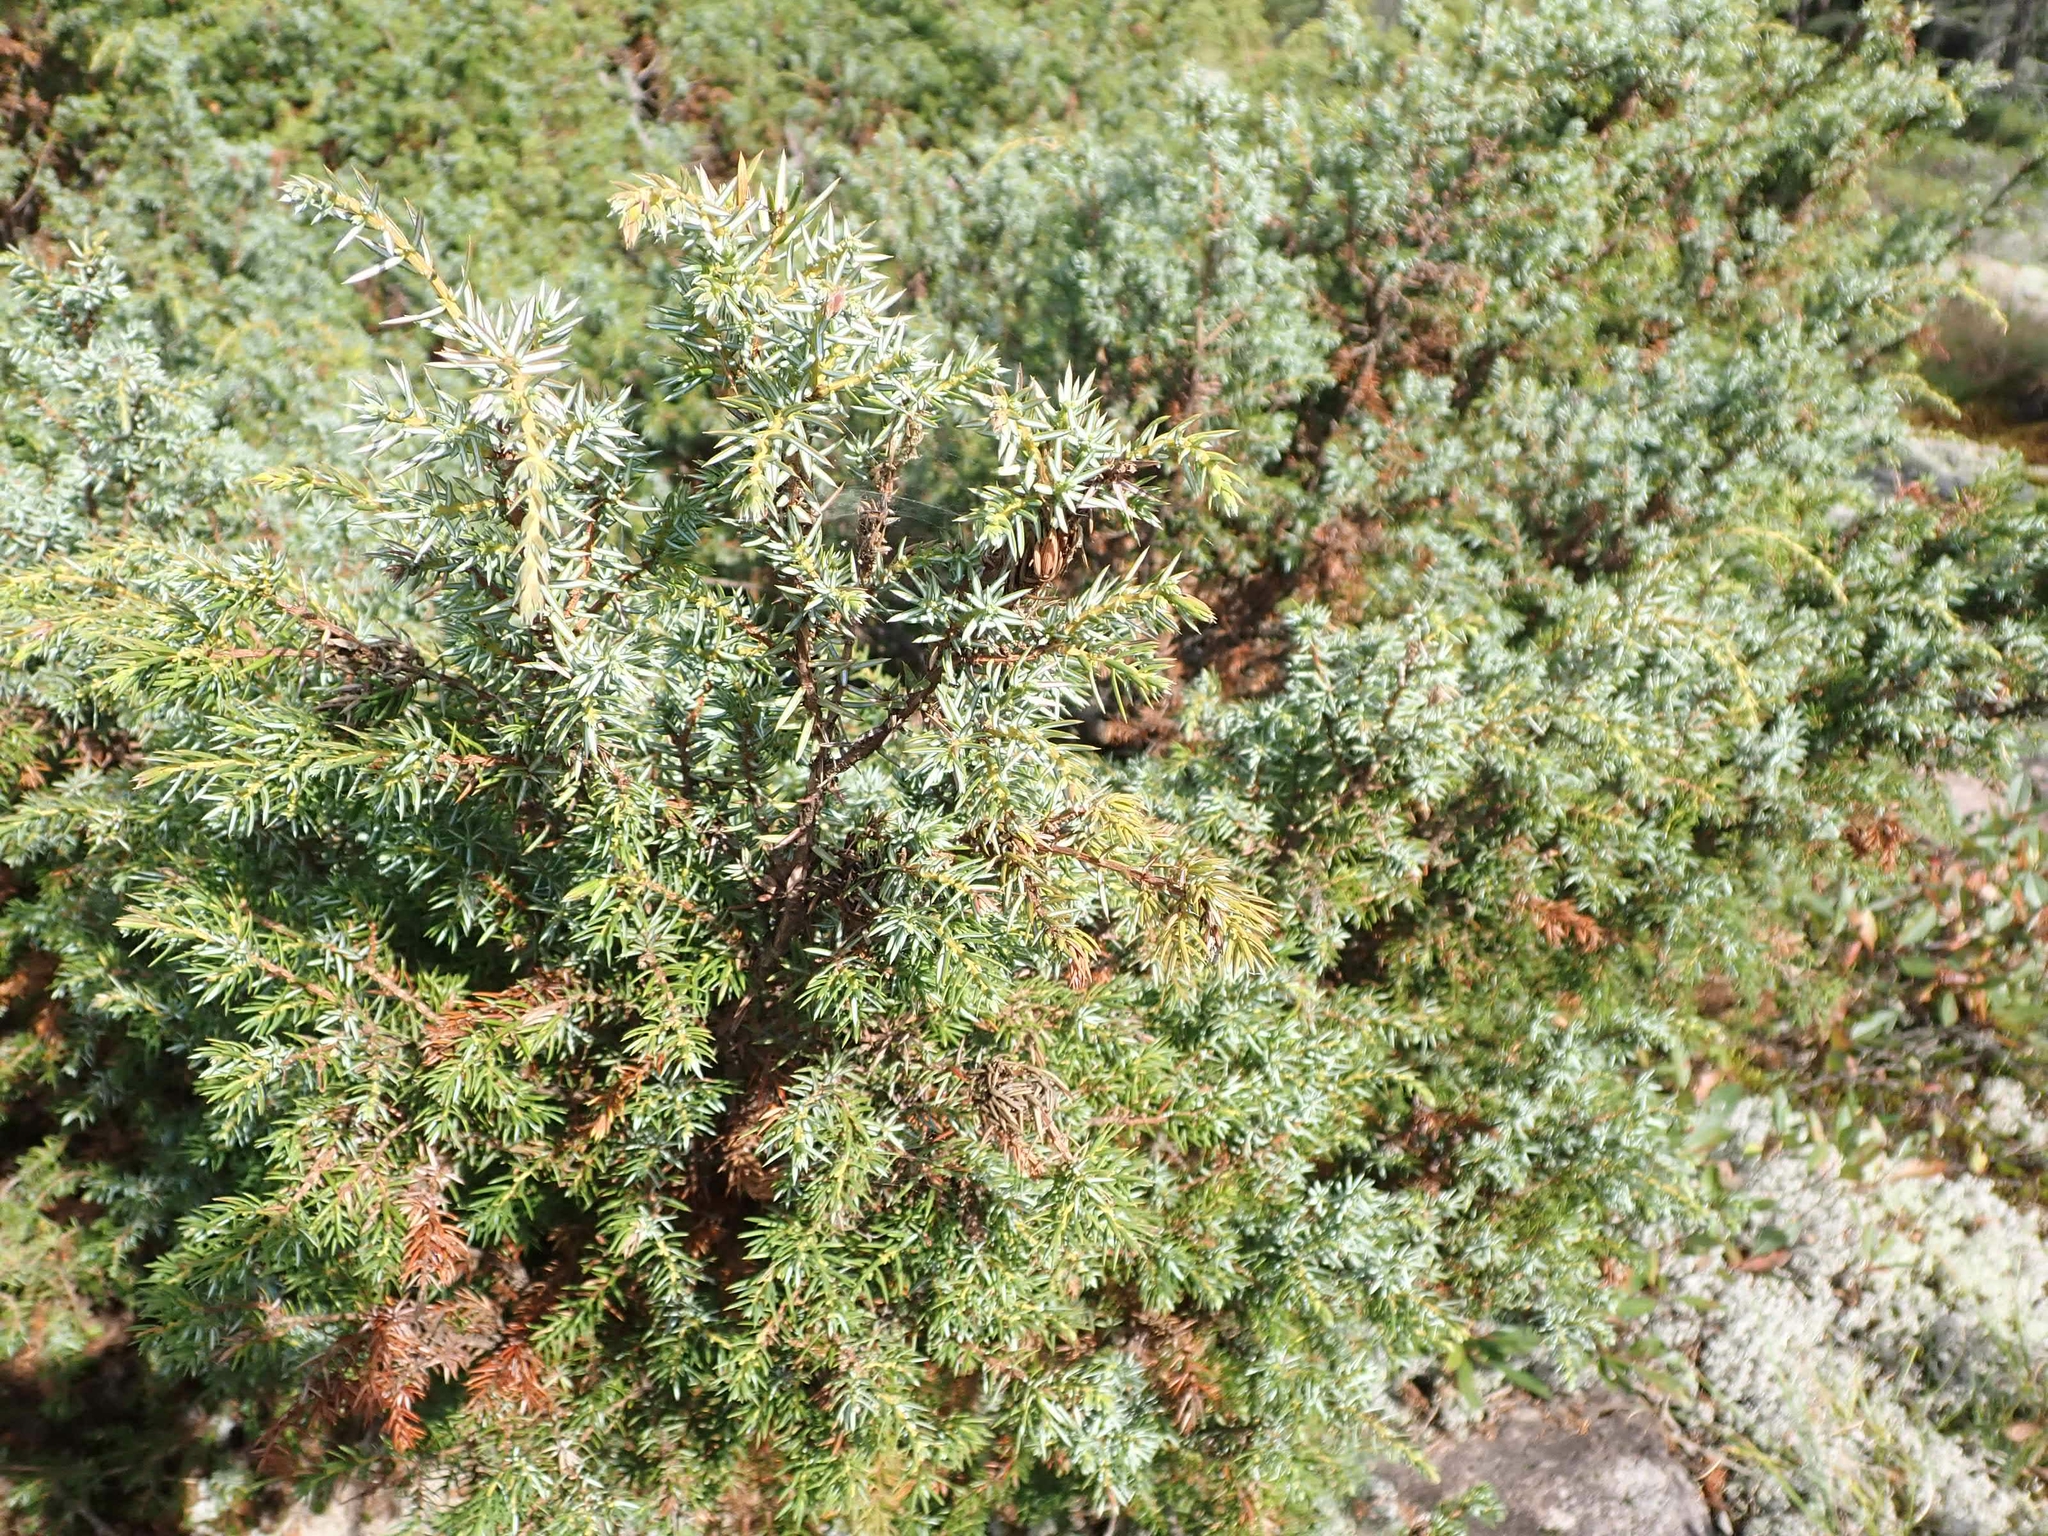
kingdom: Plantae
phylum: Tracheophyta
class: Pinopsida
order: Pinales
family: Cupressaceae
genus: Juniperus
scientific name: Juniperus communis
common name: Common juniper
